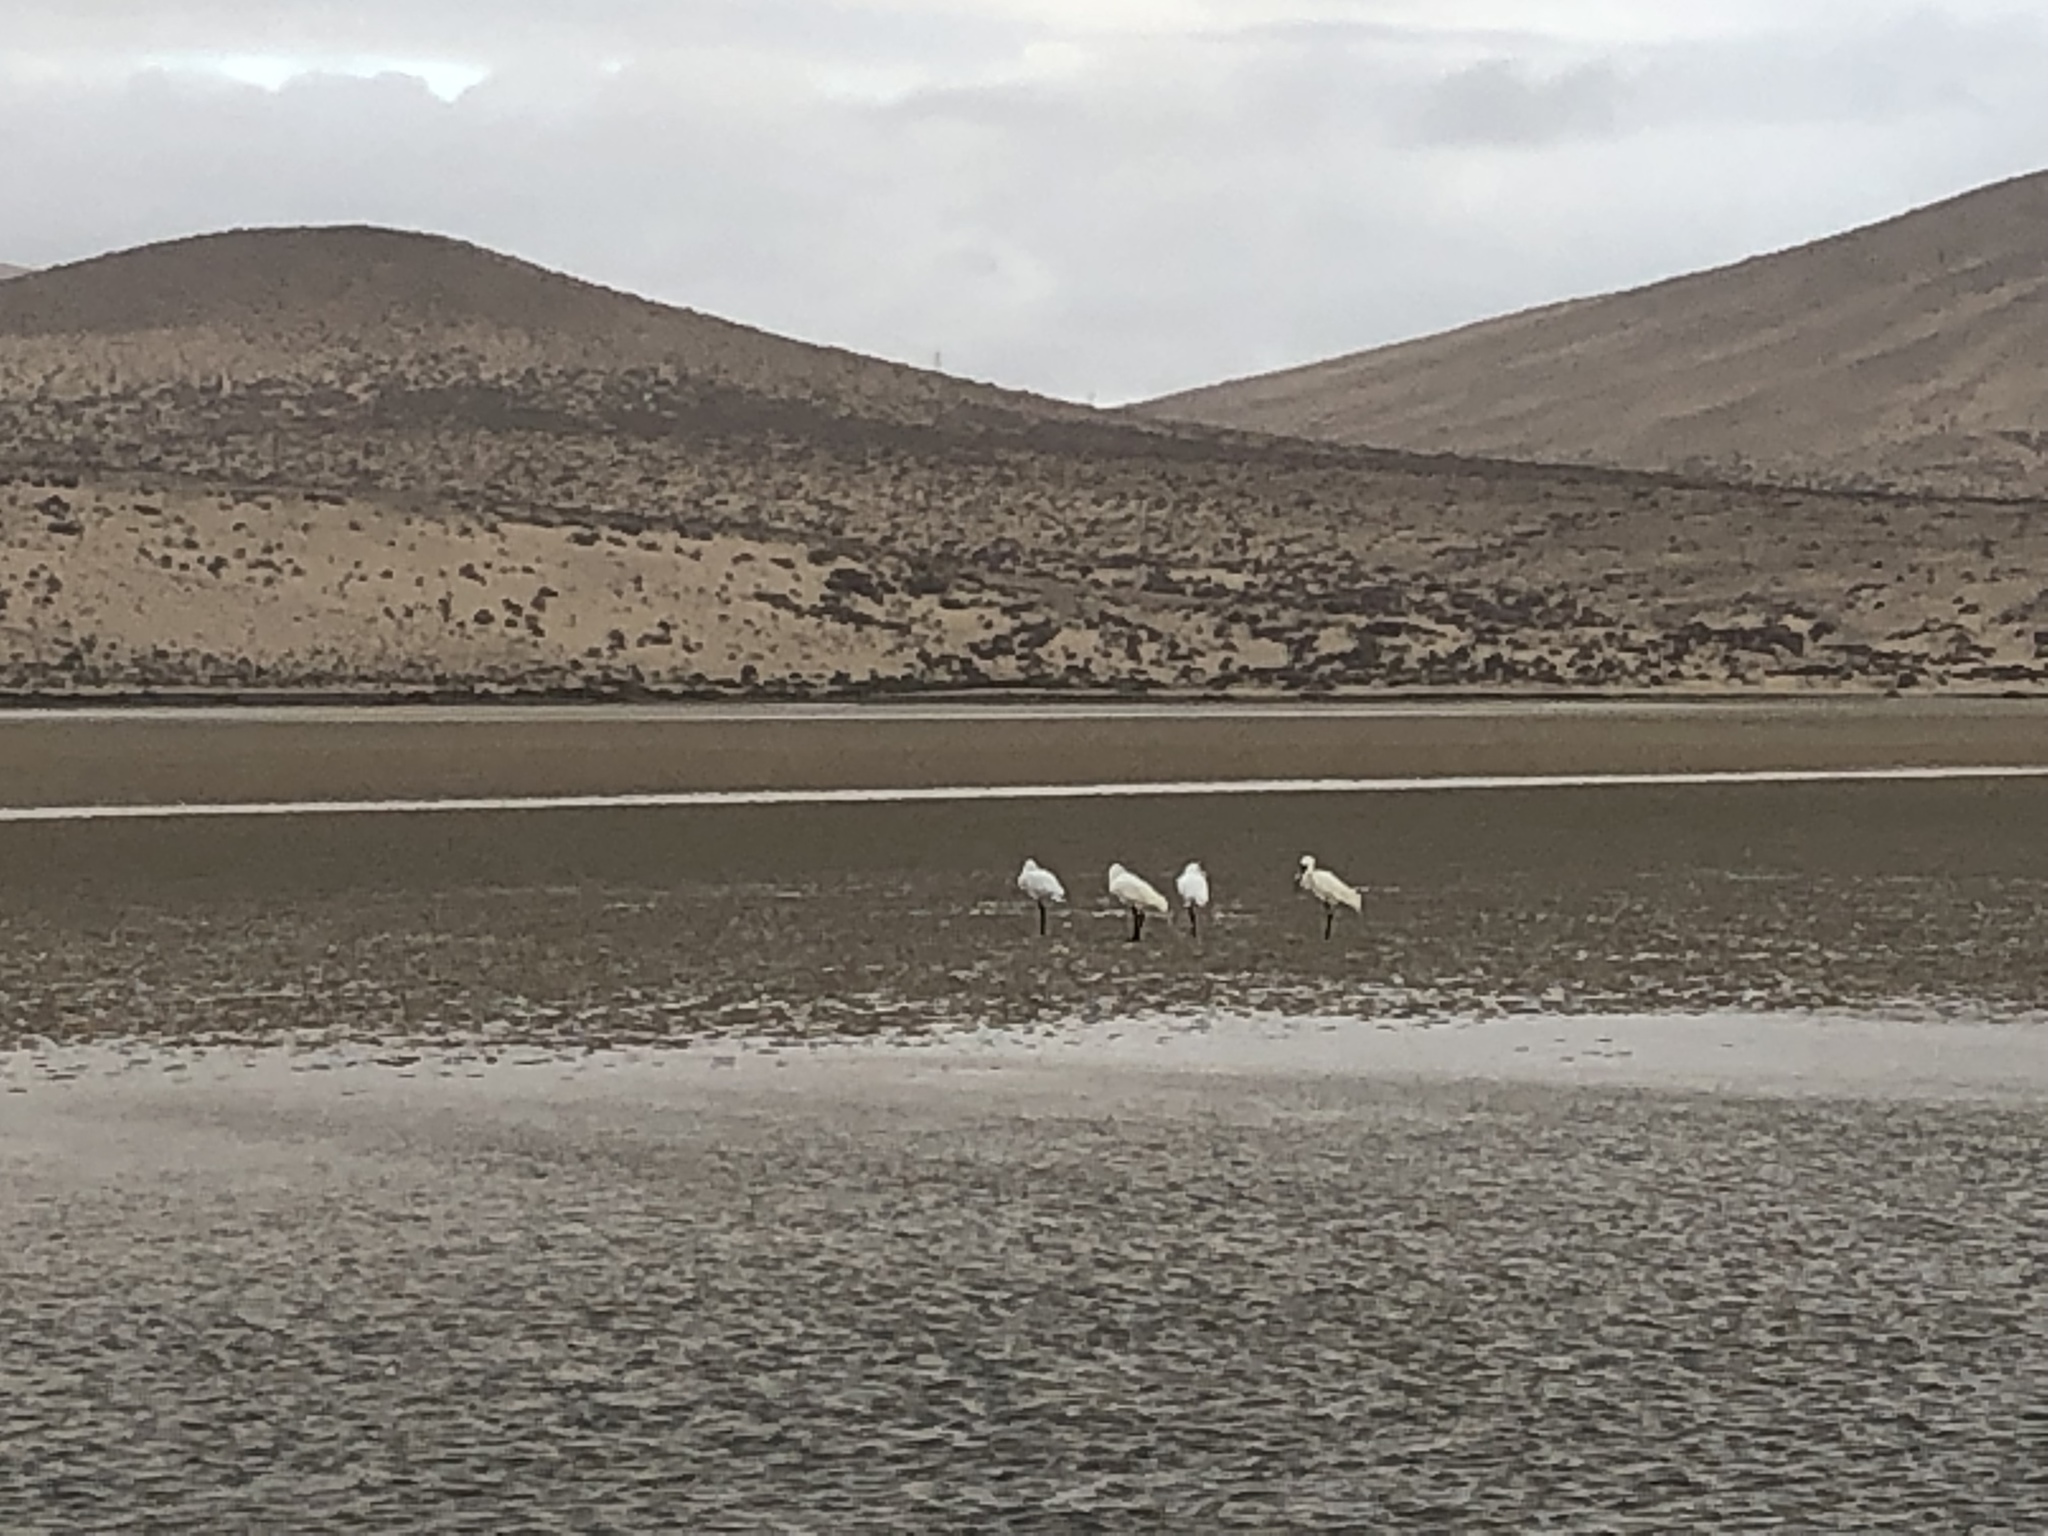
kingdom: Animalia
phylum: Chordata
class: Aves
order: Pelecaniformes
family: Threskiornithidae
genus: Platalea
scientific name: Platalea leucorodia
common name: Eurasian spoonbill
